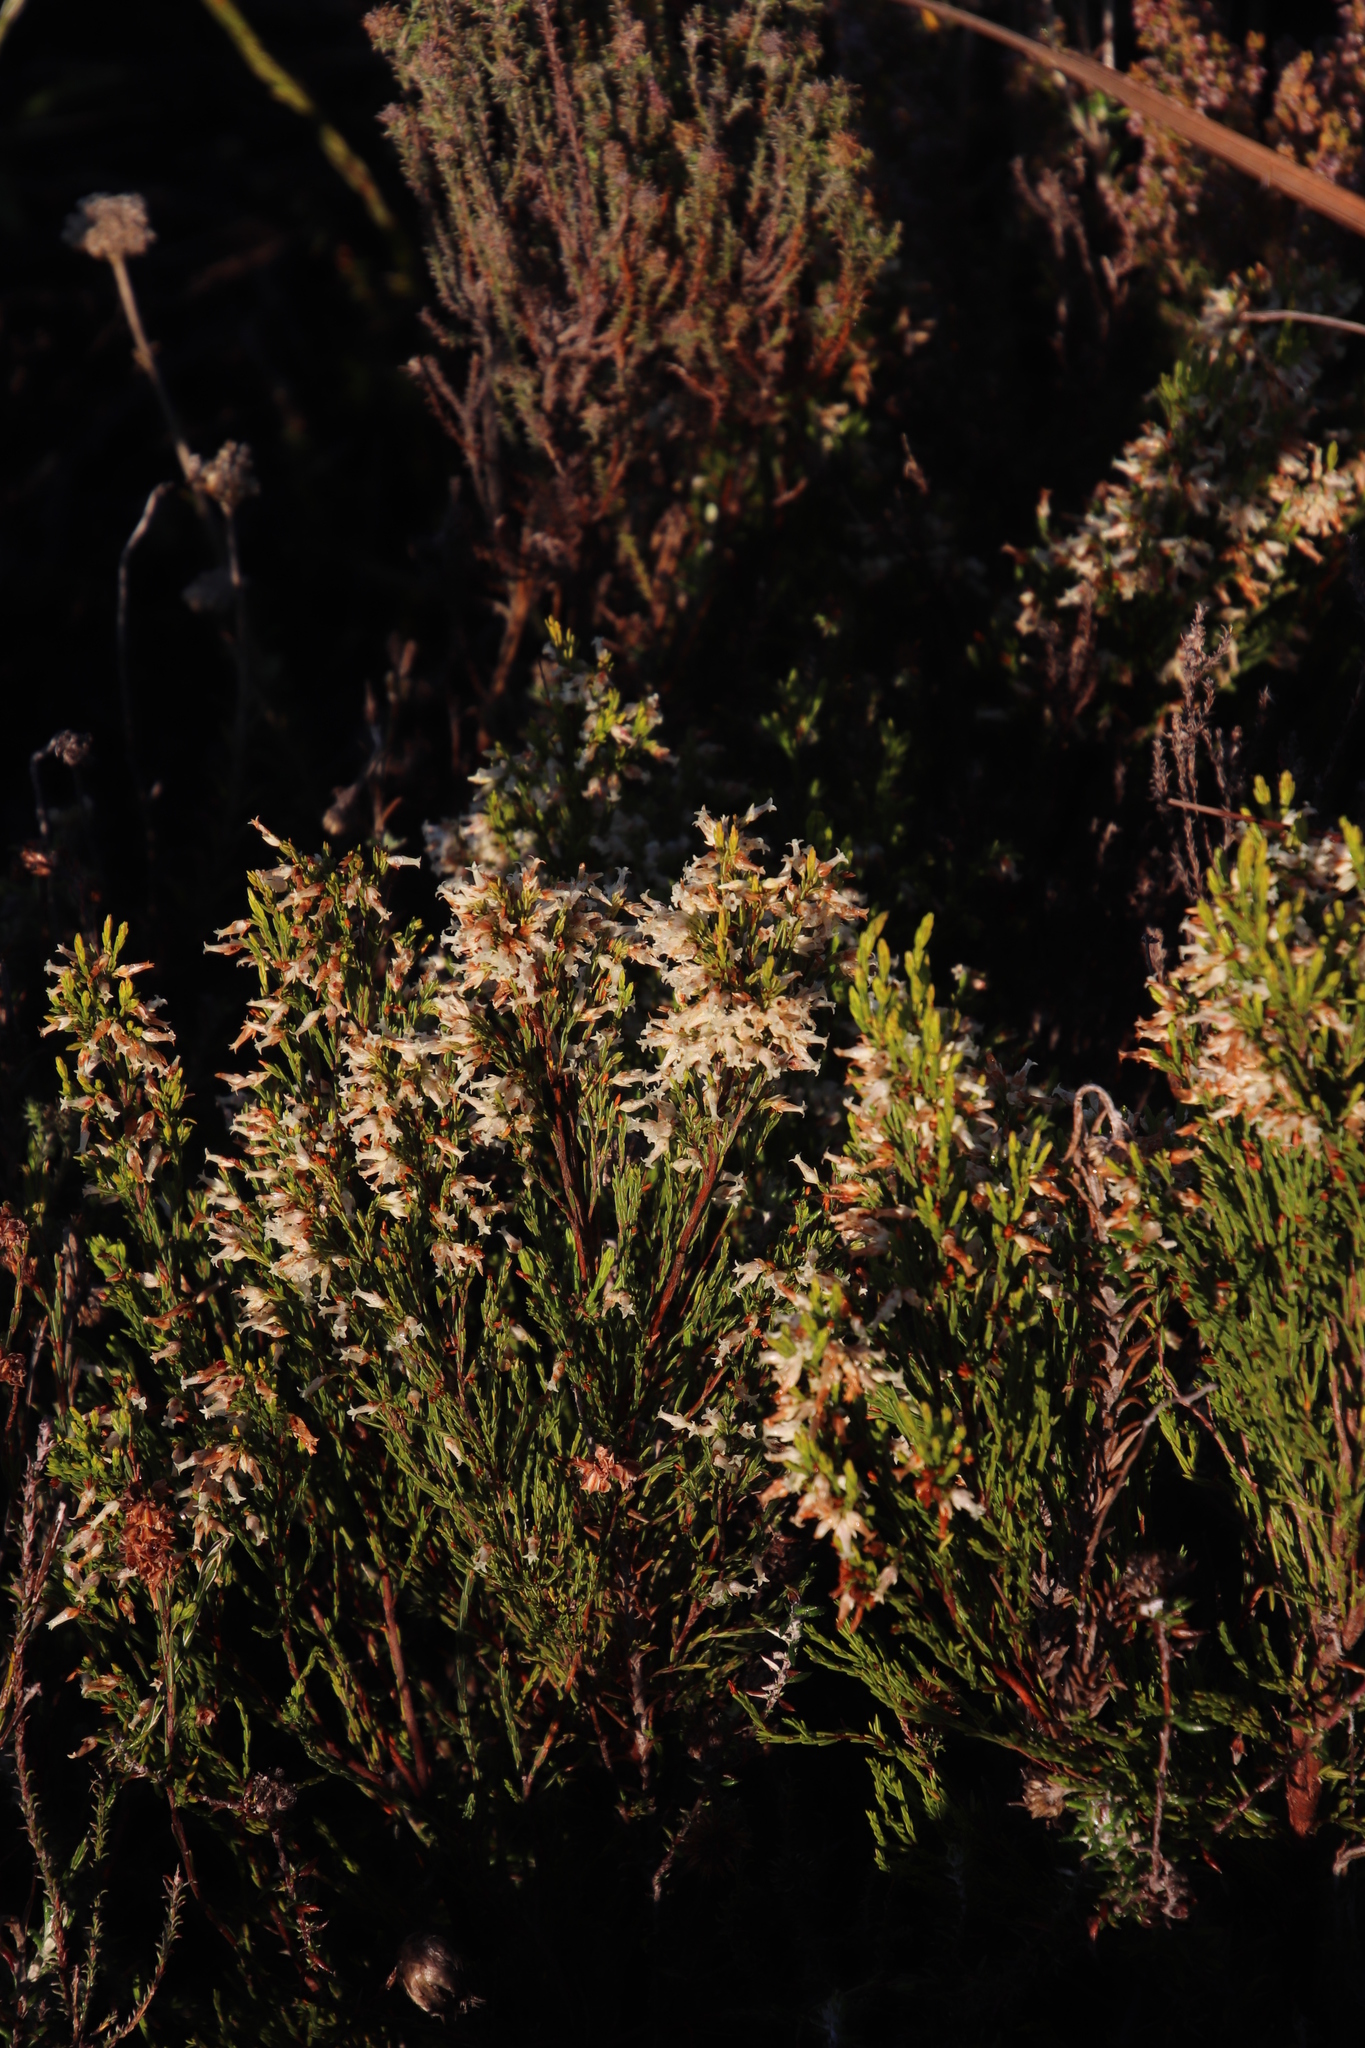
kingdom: Plantae
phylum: Tracheophyta
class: Magnoliopsida
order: Ericales
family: Ericaceae
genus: Erica
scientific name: Erica lutea
